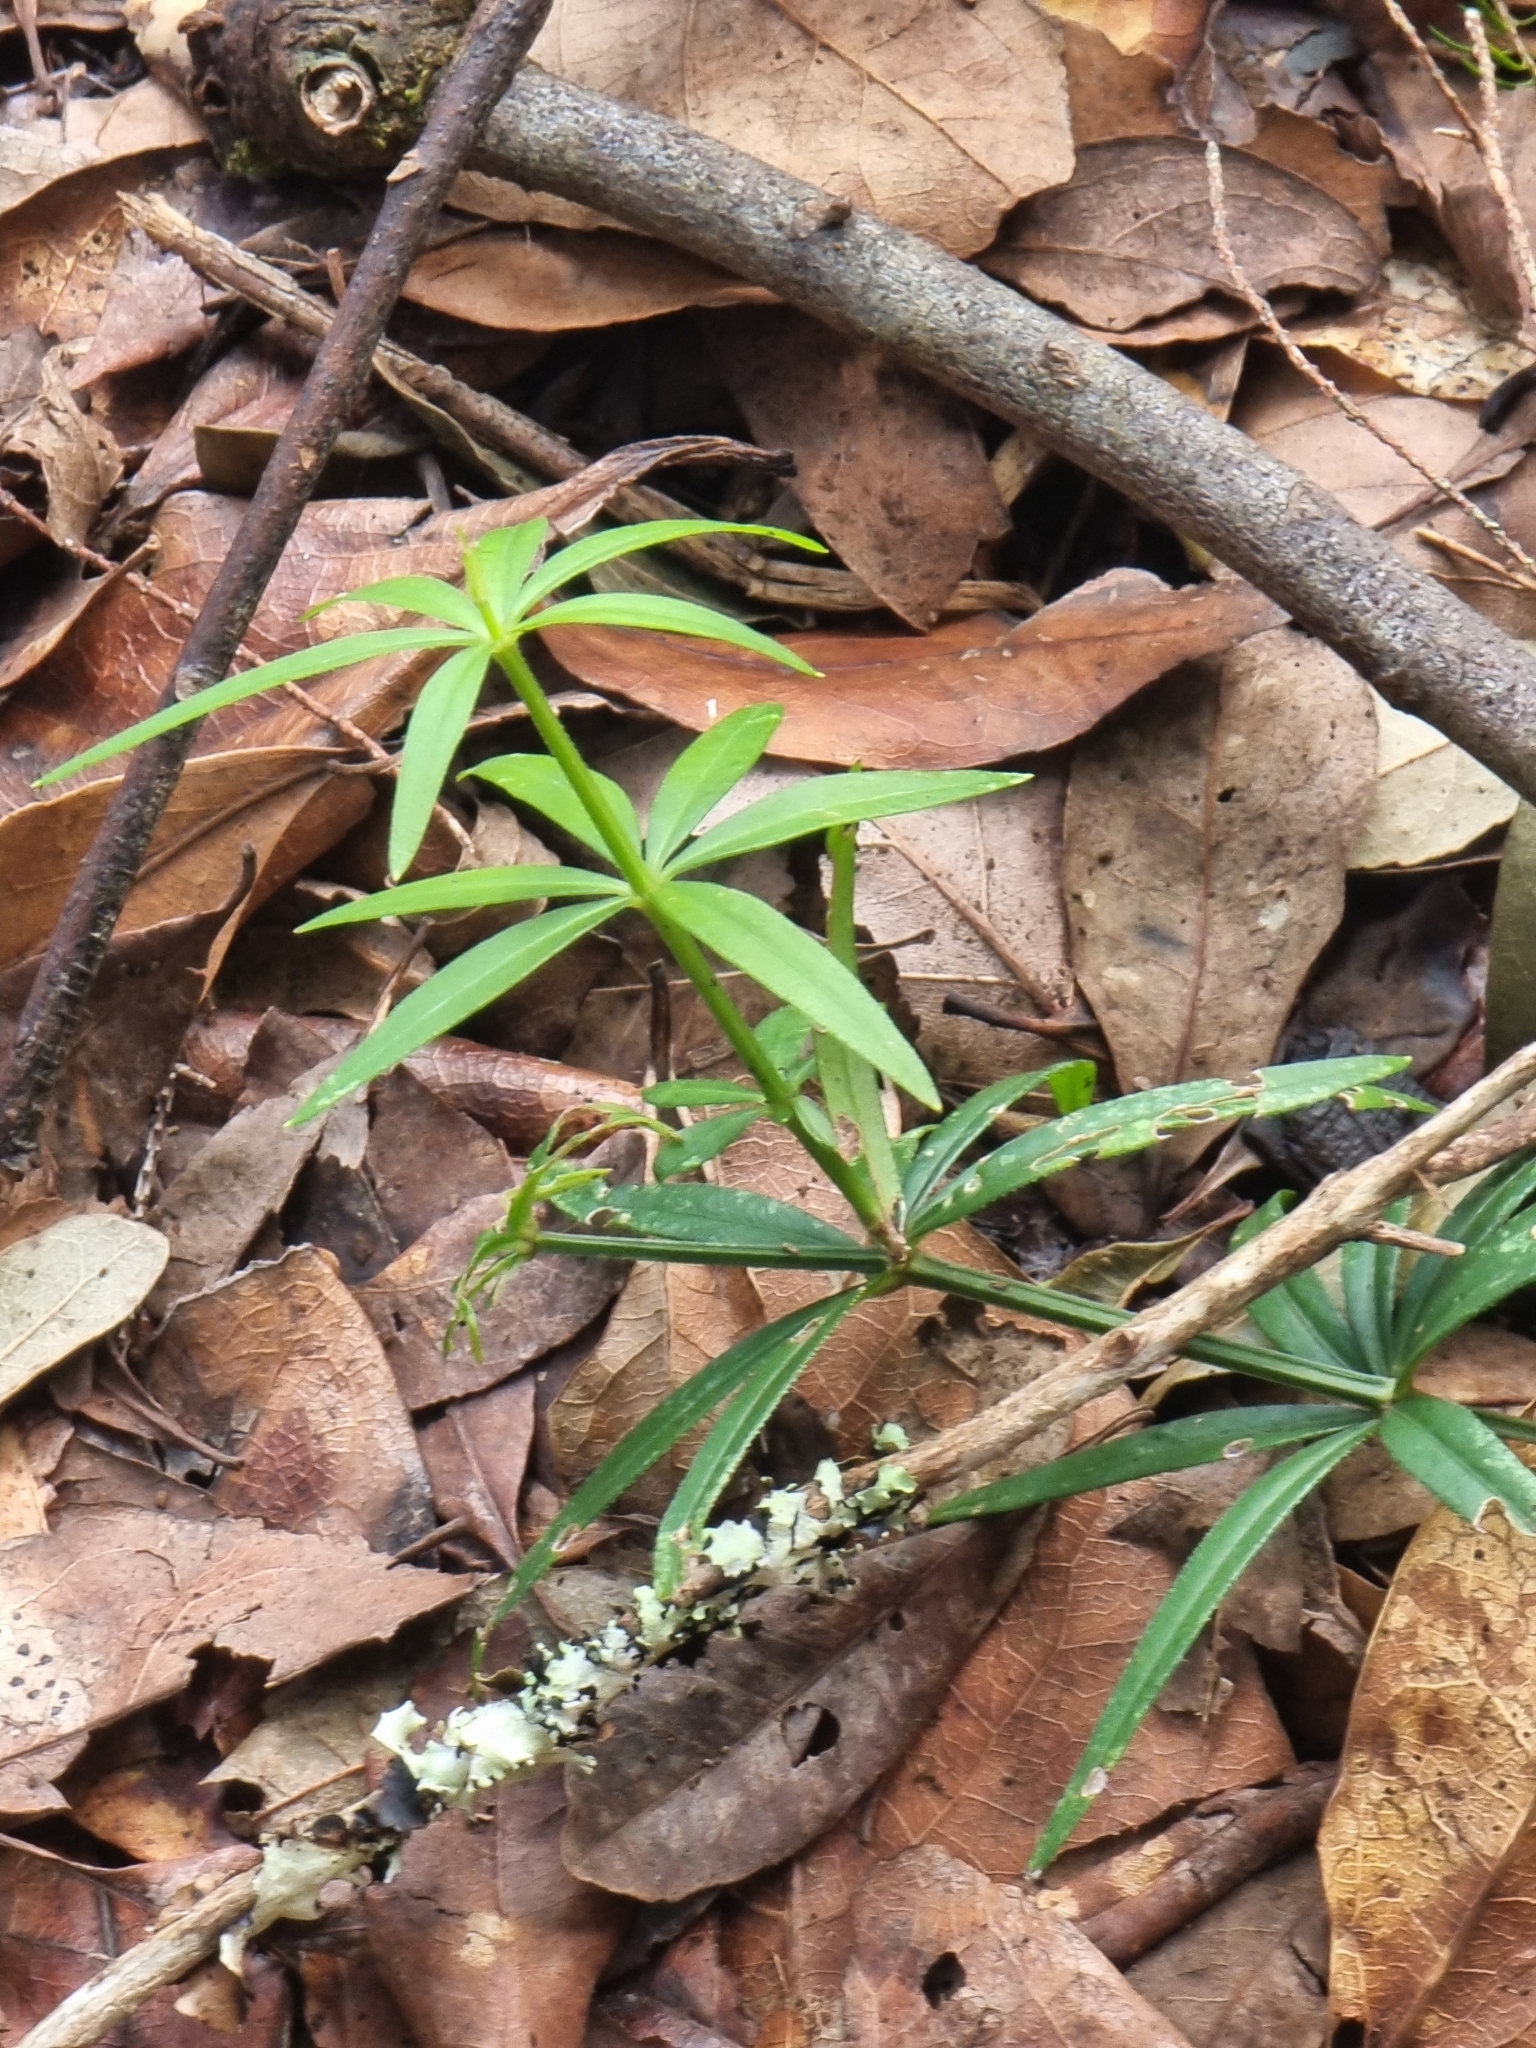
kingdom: Plantae
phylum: Tracheophyta
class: Magnoliopsida
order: Gentianales
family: Rubiaceae
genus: Rubia
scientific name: Rubia occidens
